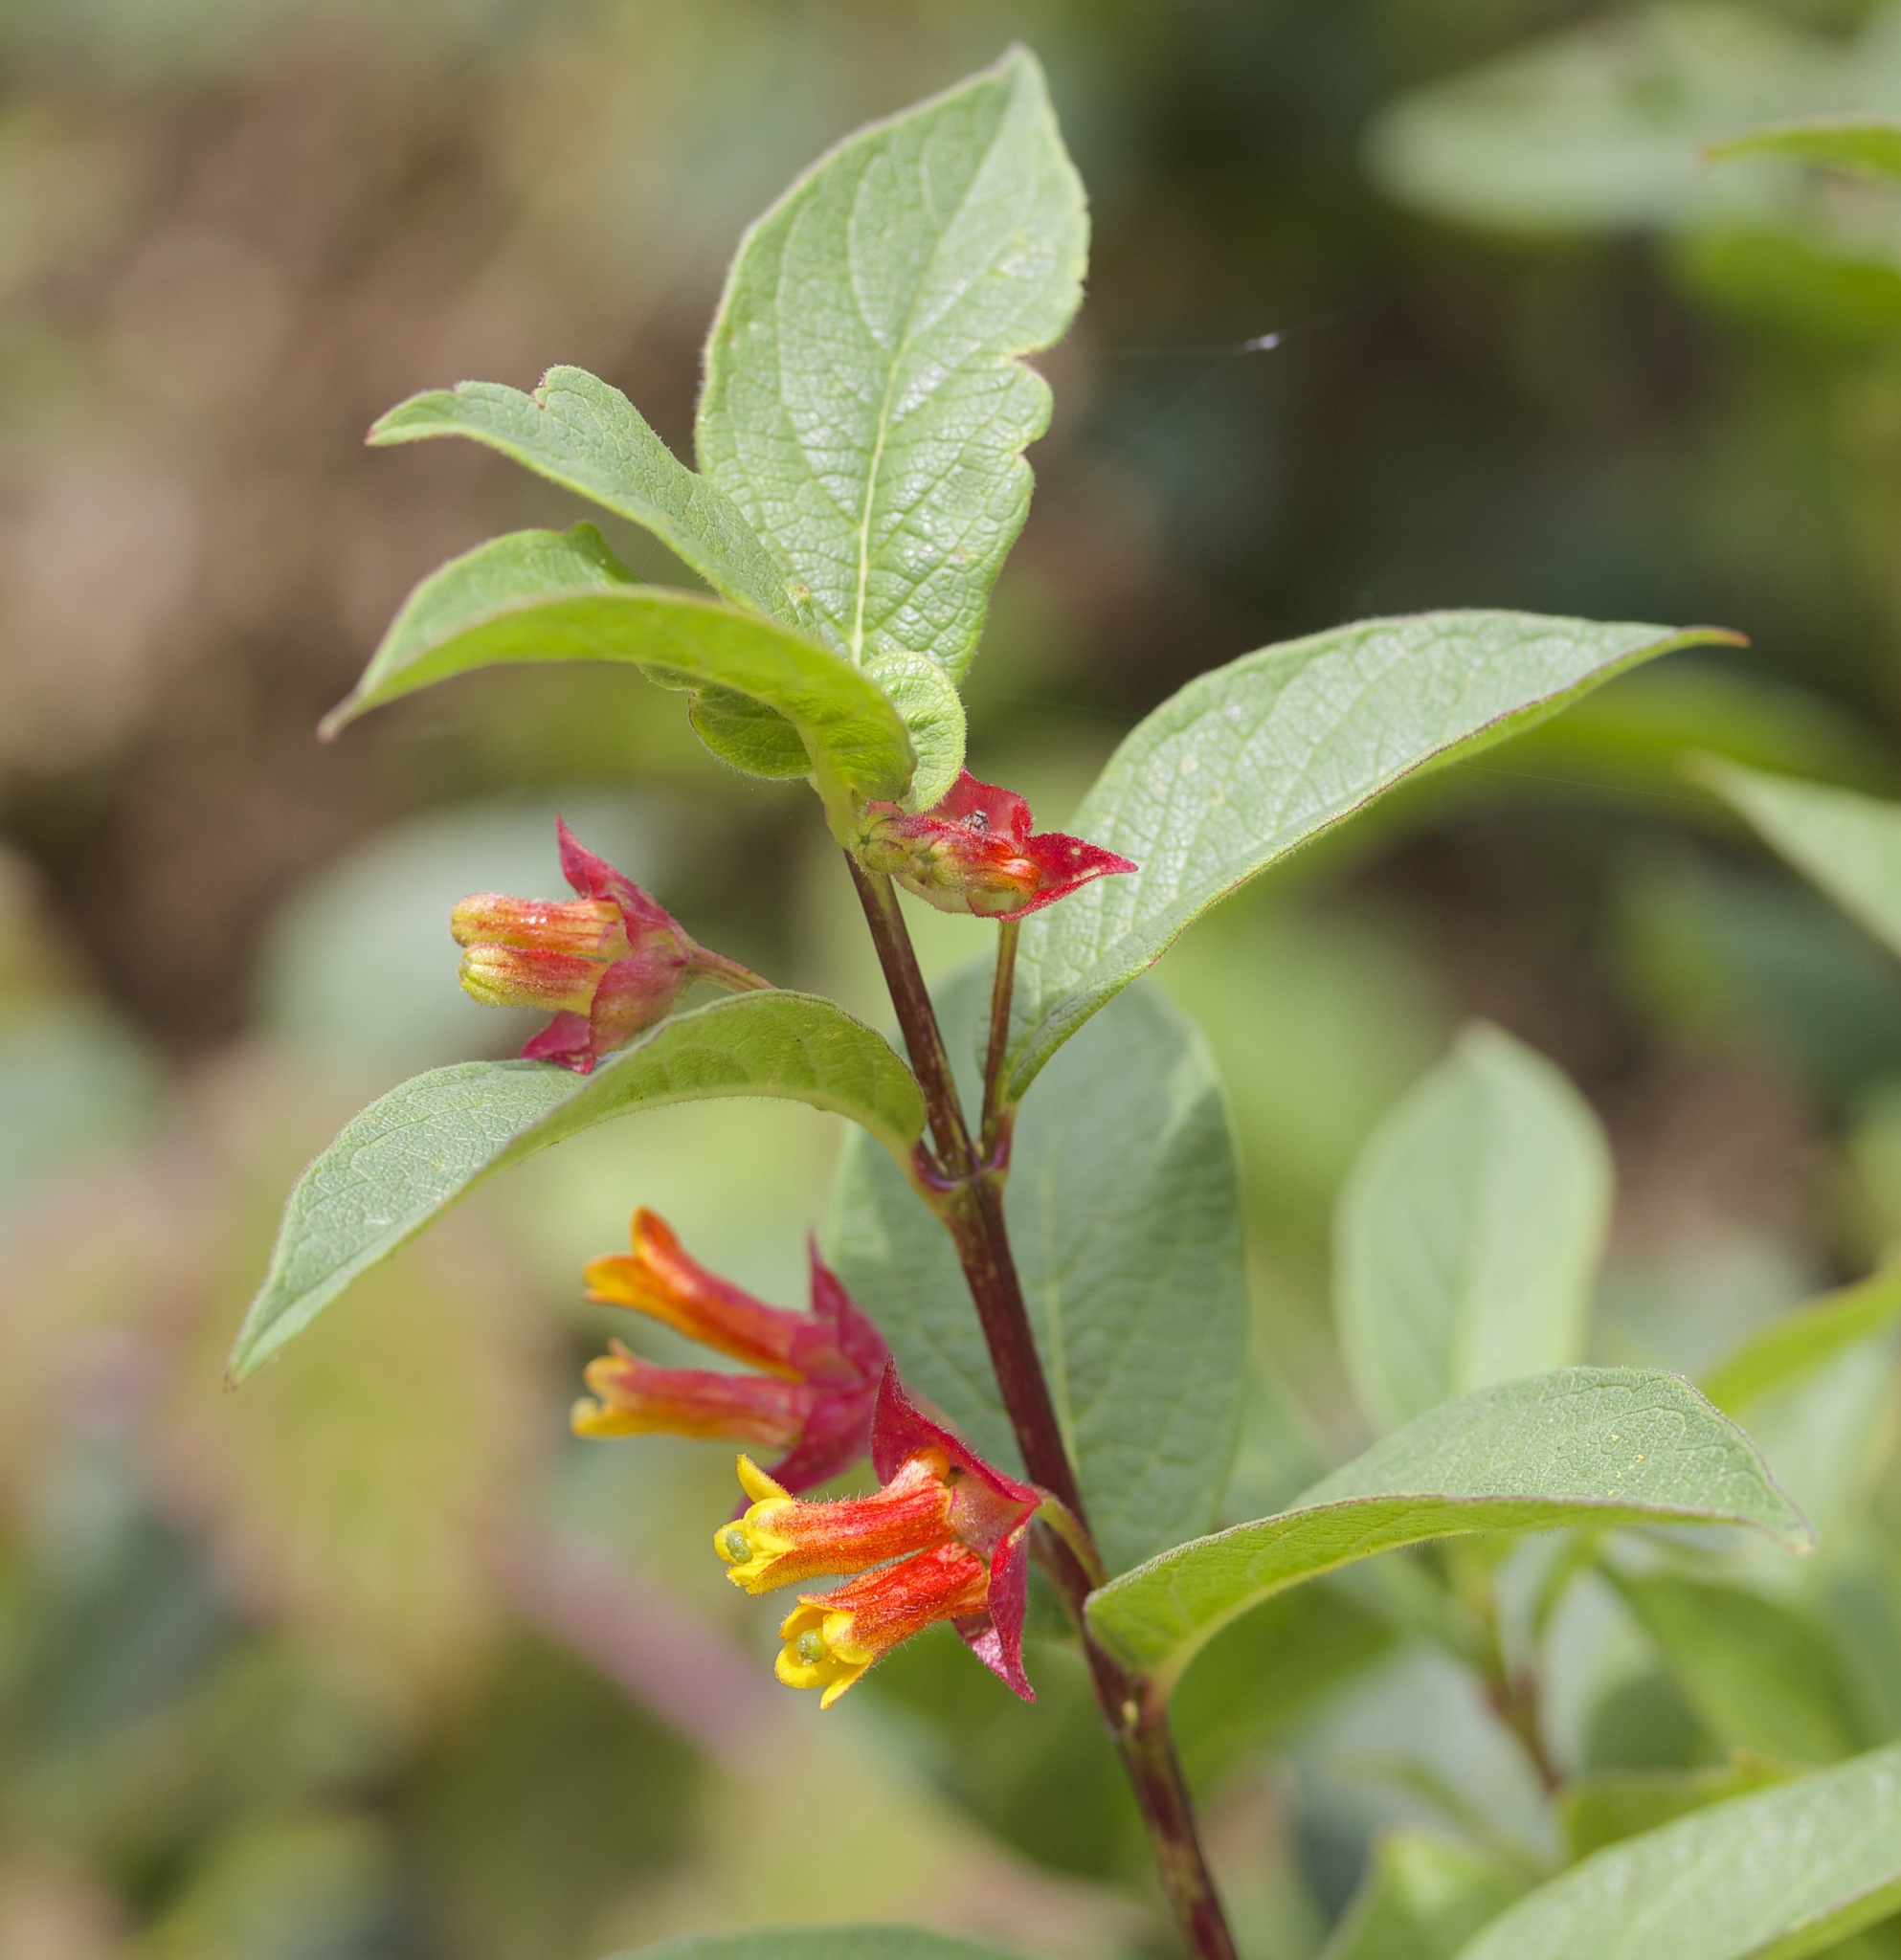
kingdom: Plantae
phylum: Tracheophyta
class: Magnoliopsida
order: Dipsacales
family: Caprifoliaceae
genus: Lonicera
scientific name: Lonicera involucrata
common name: Californian honeysuckle
